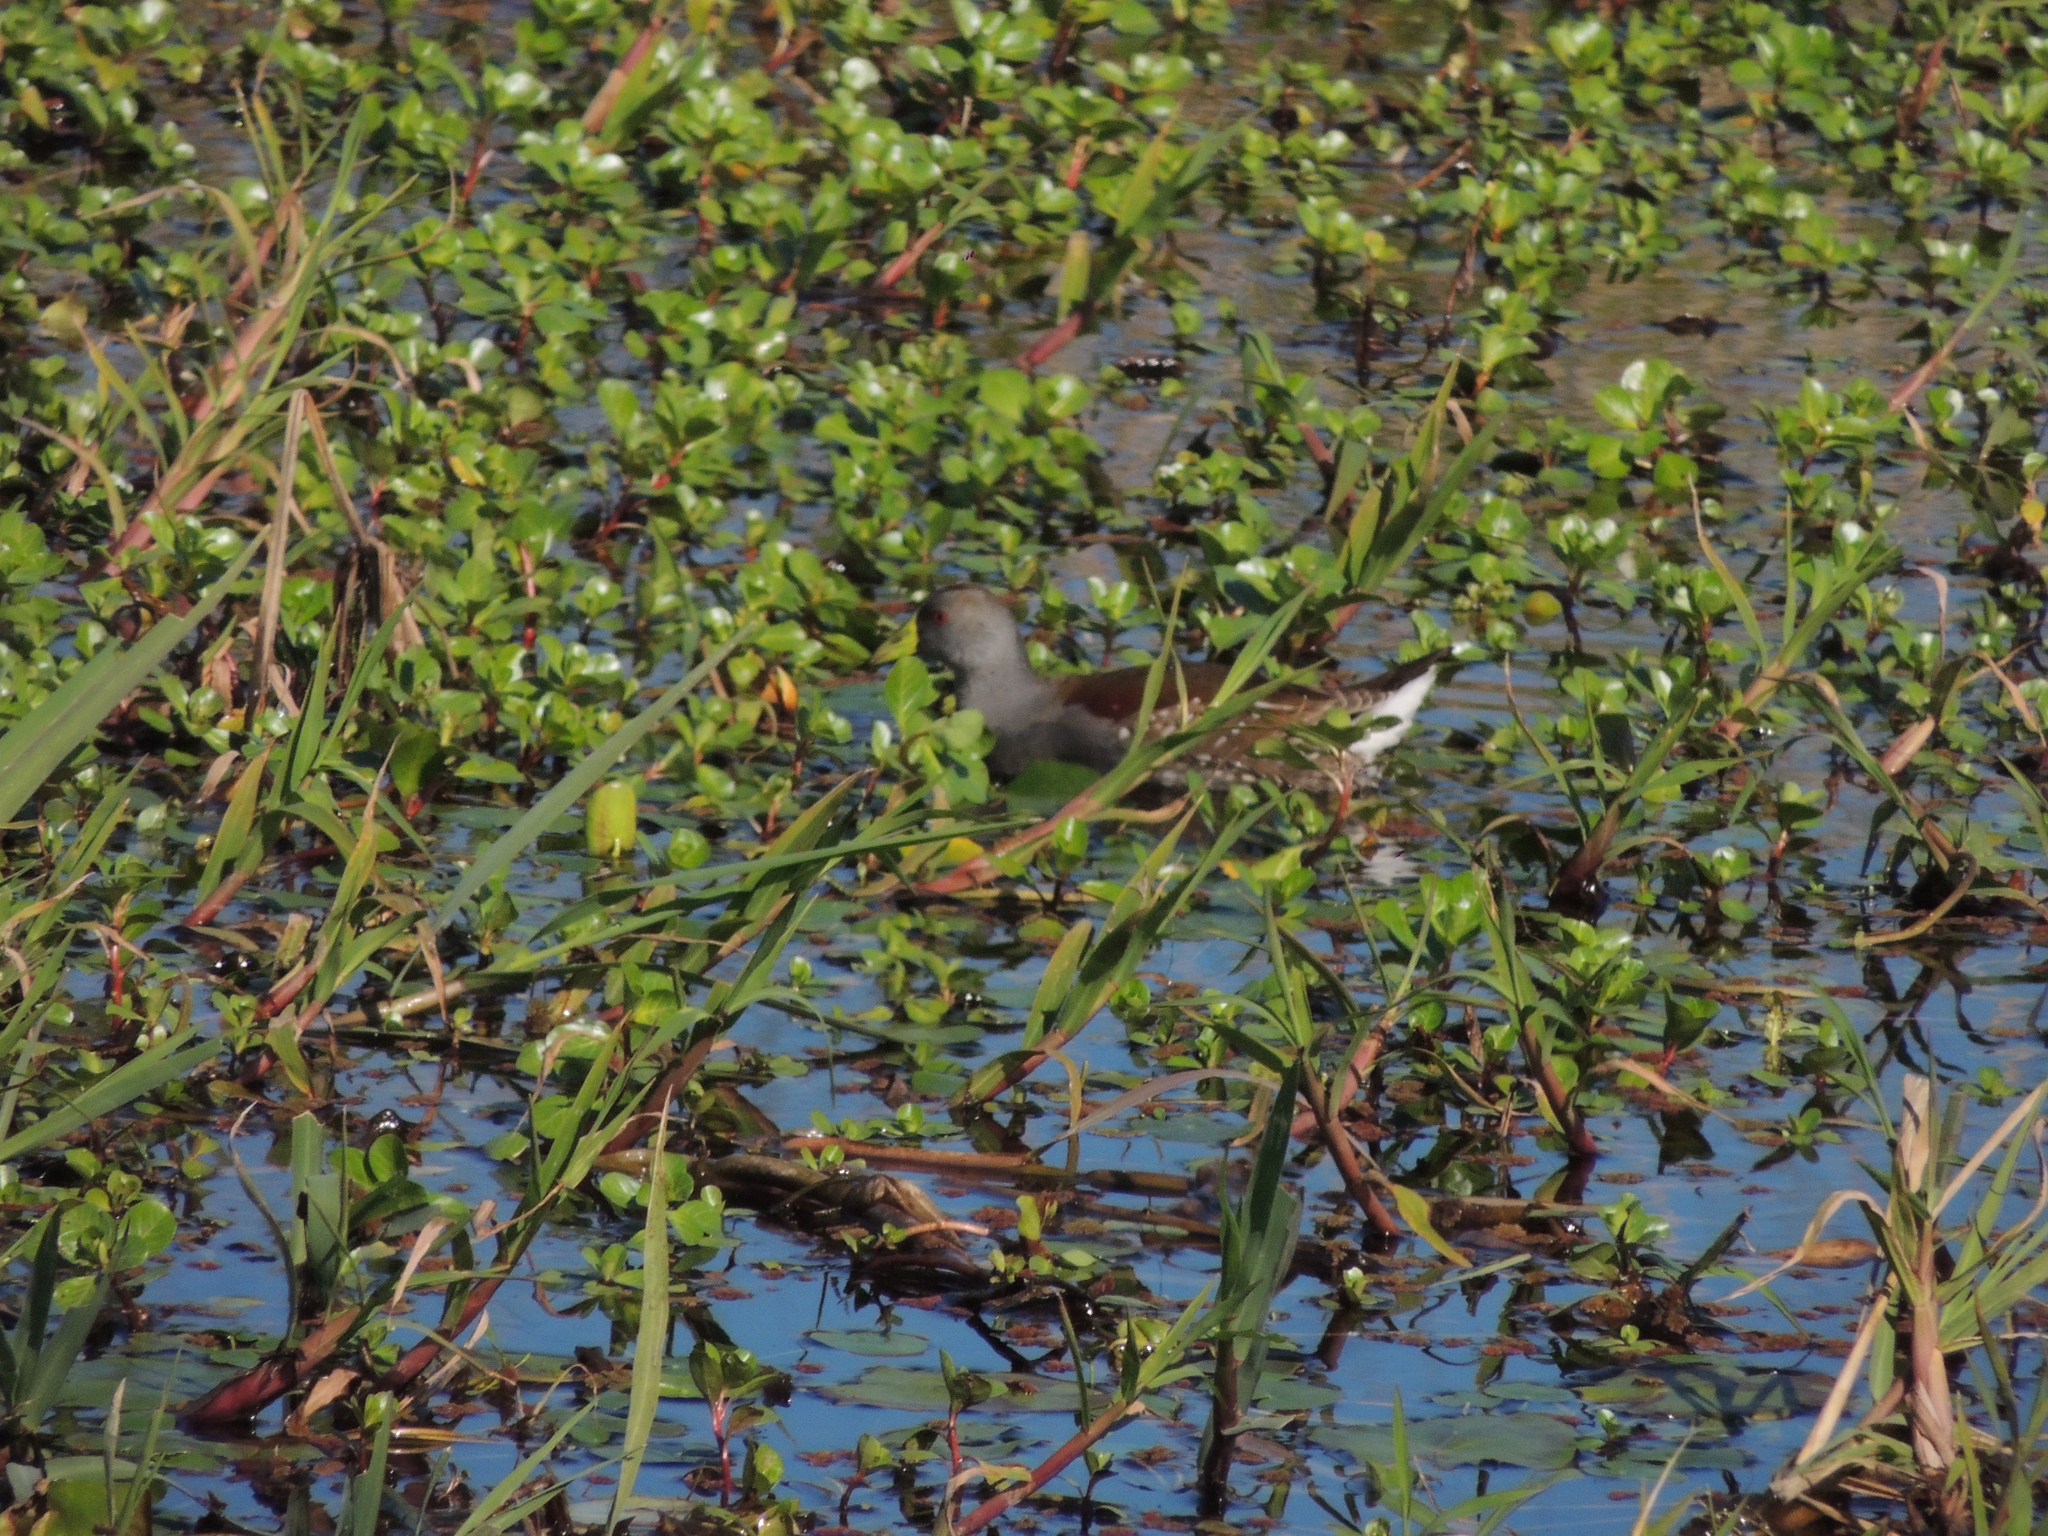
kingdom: Animalia
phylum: Chordata
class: Aves
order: Gruiformes
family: Rallidae
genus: Gallinula
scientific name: Gallinula melanops
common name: Spot-flanked gallinule
